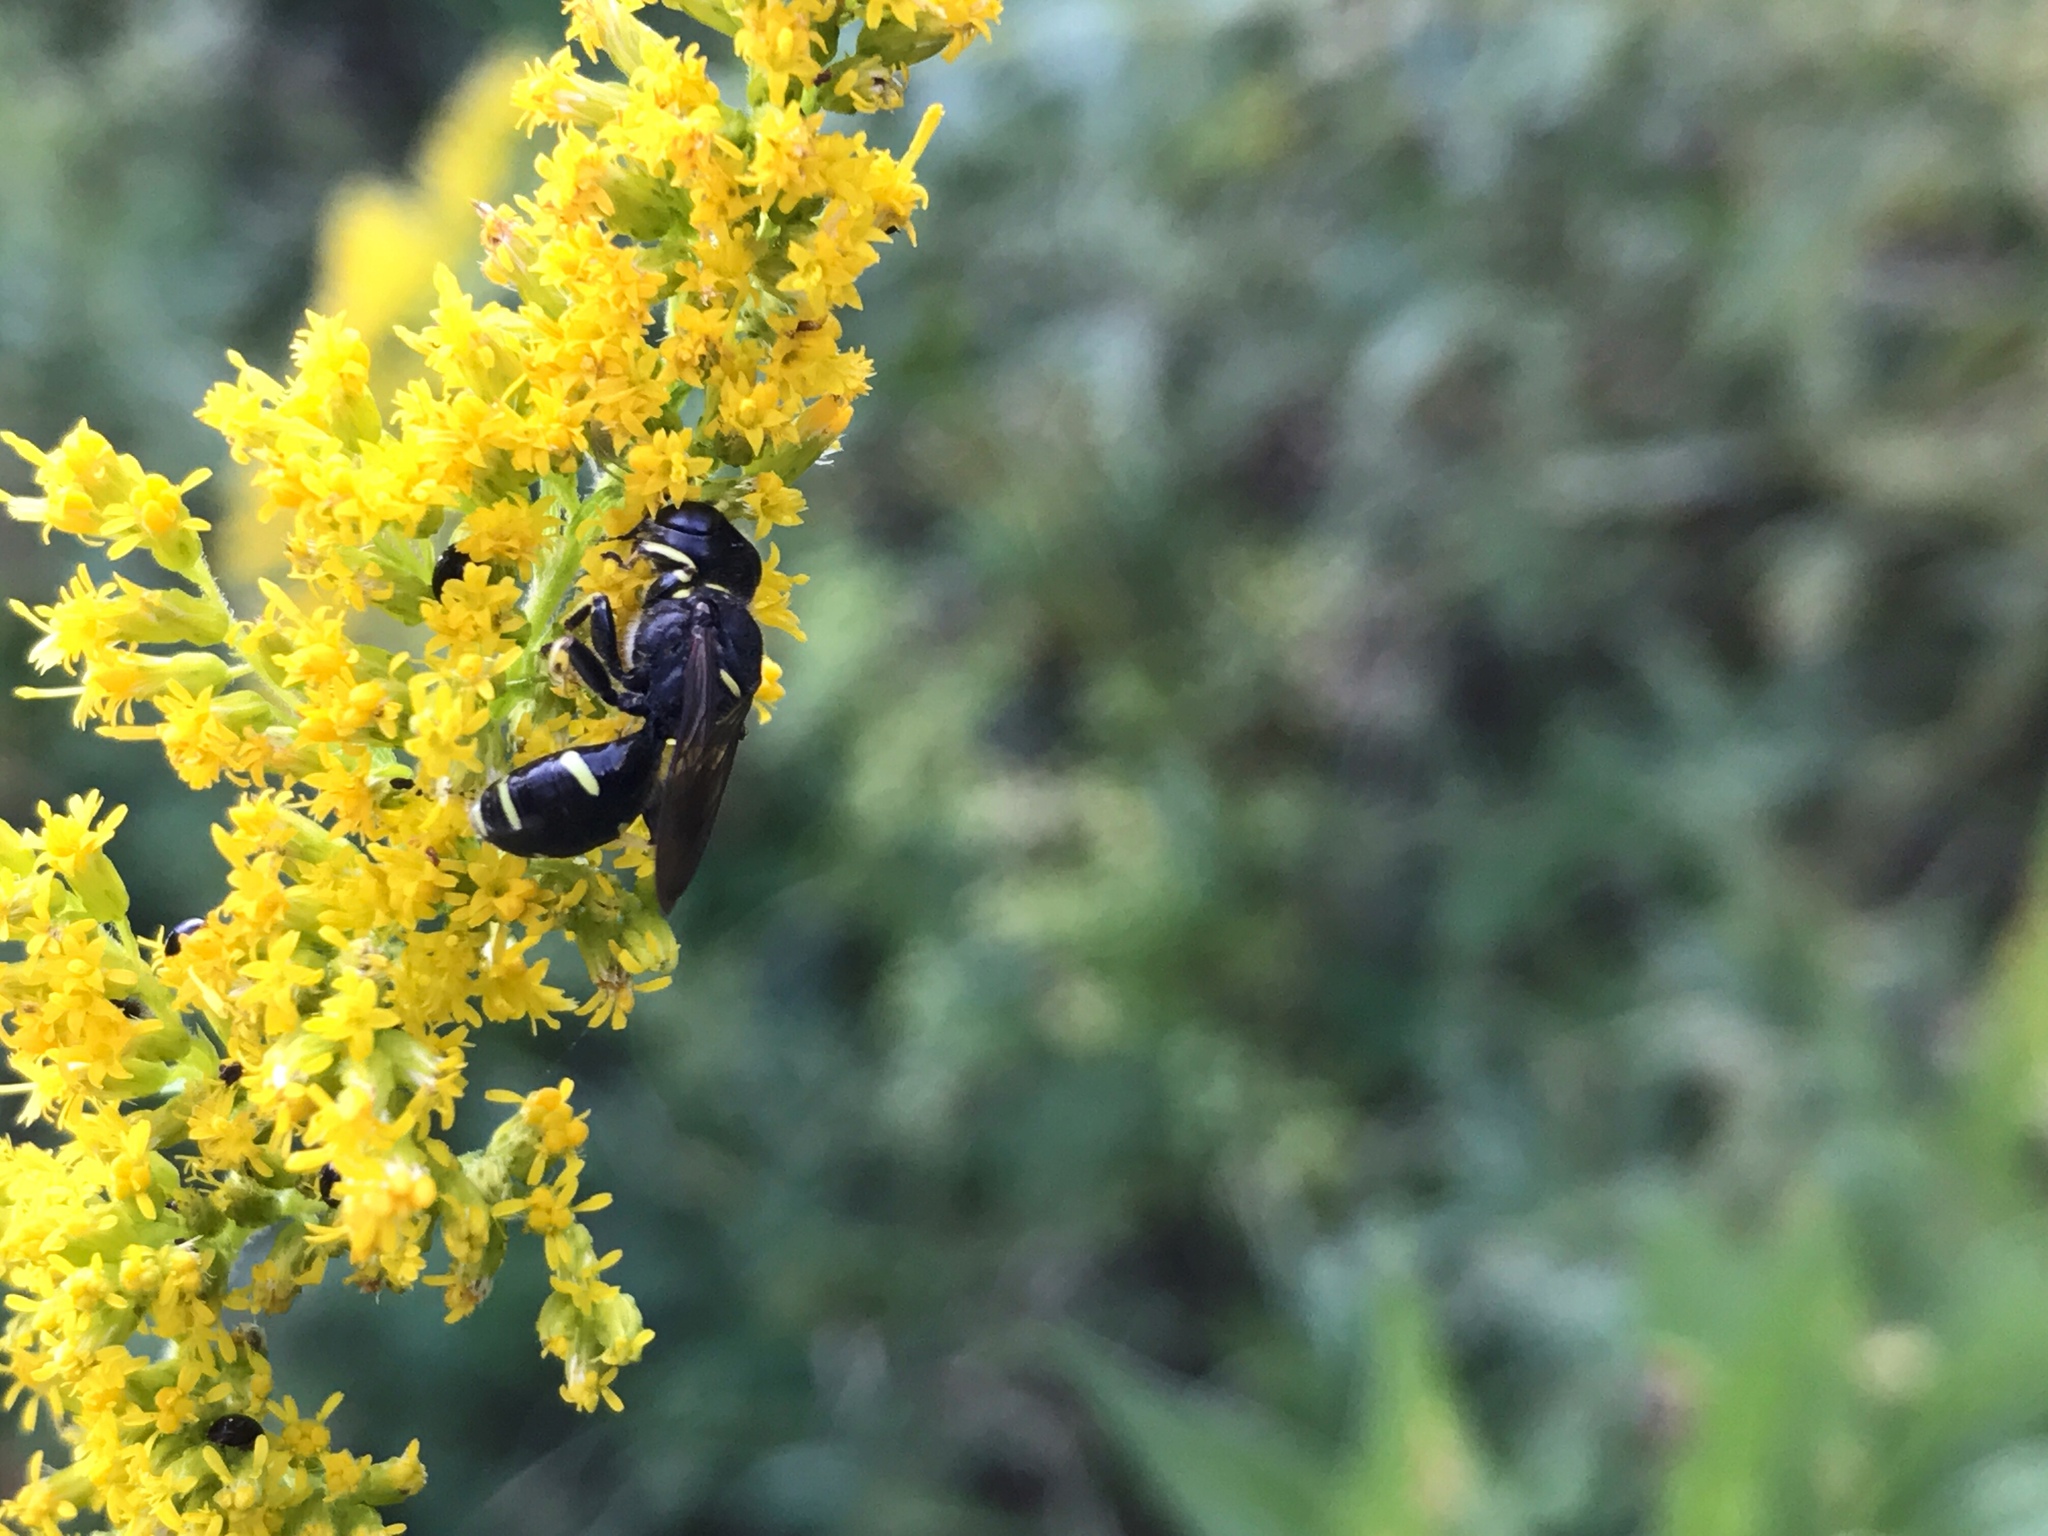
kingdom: Animalia
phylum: Arthropoda
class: Insecta
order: Hymenoptera
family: Crabronidae
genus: Ectemnius
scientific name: Ectemnius continuus
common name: Common ectemnius
